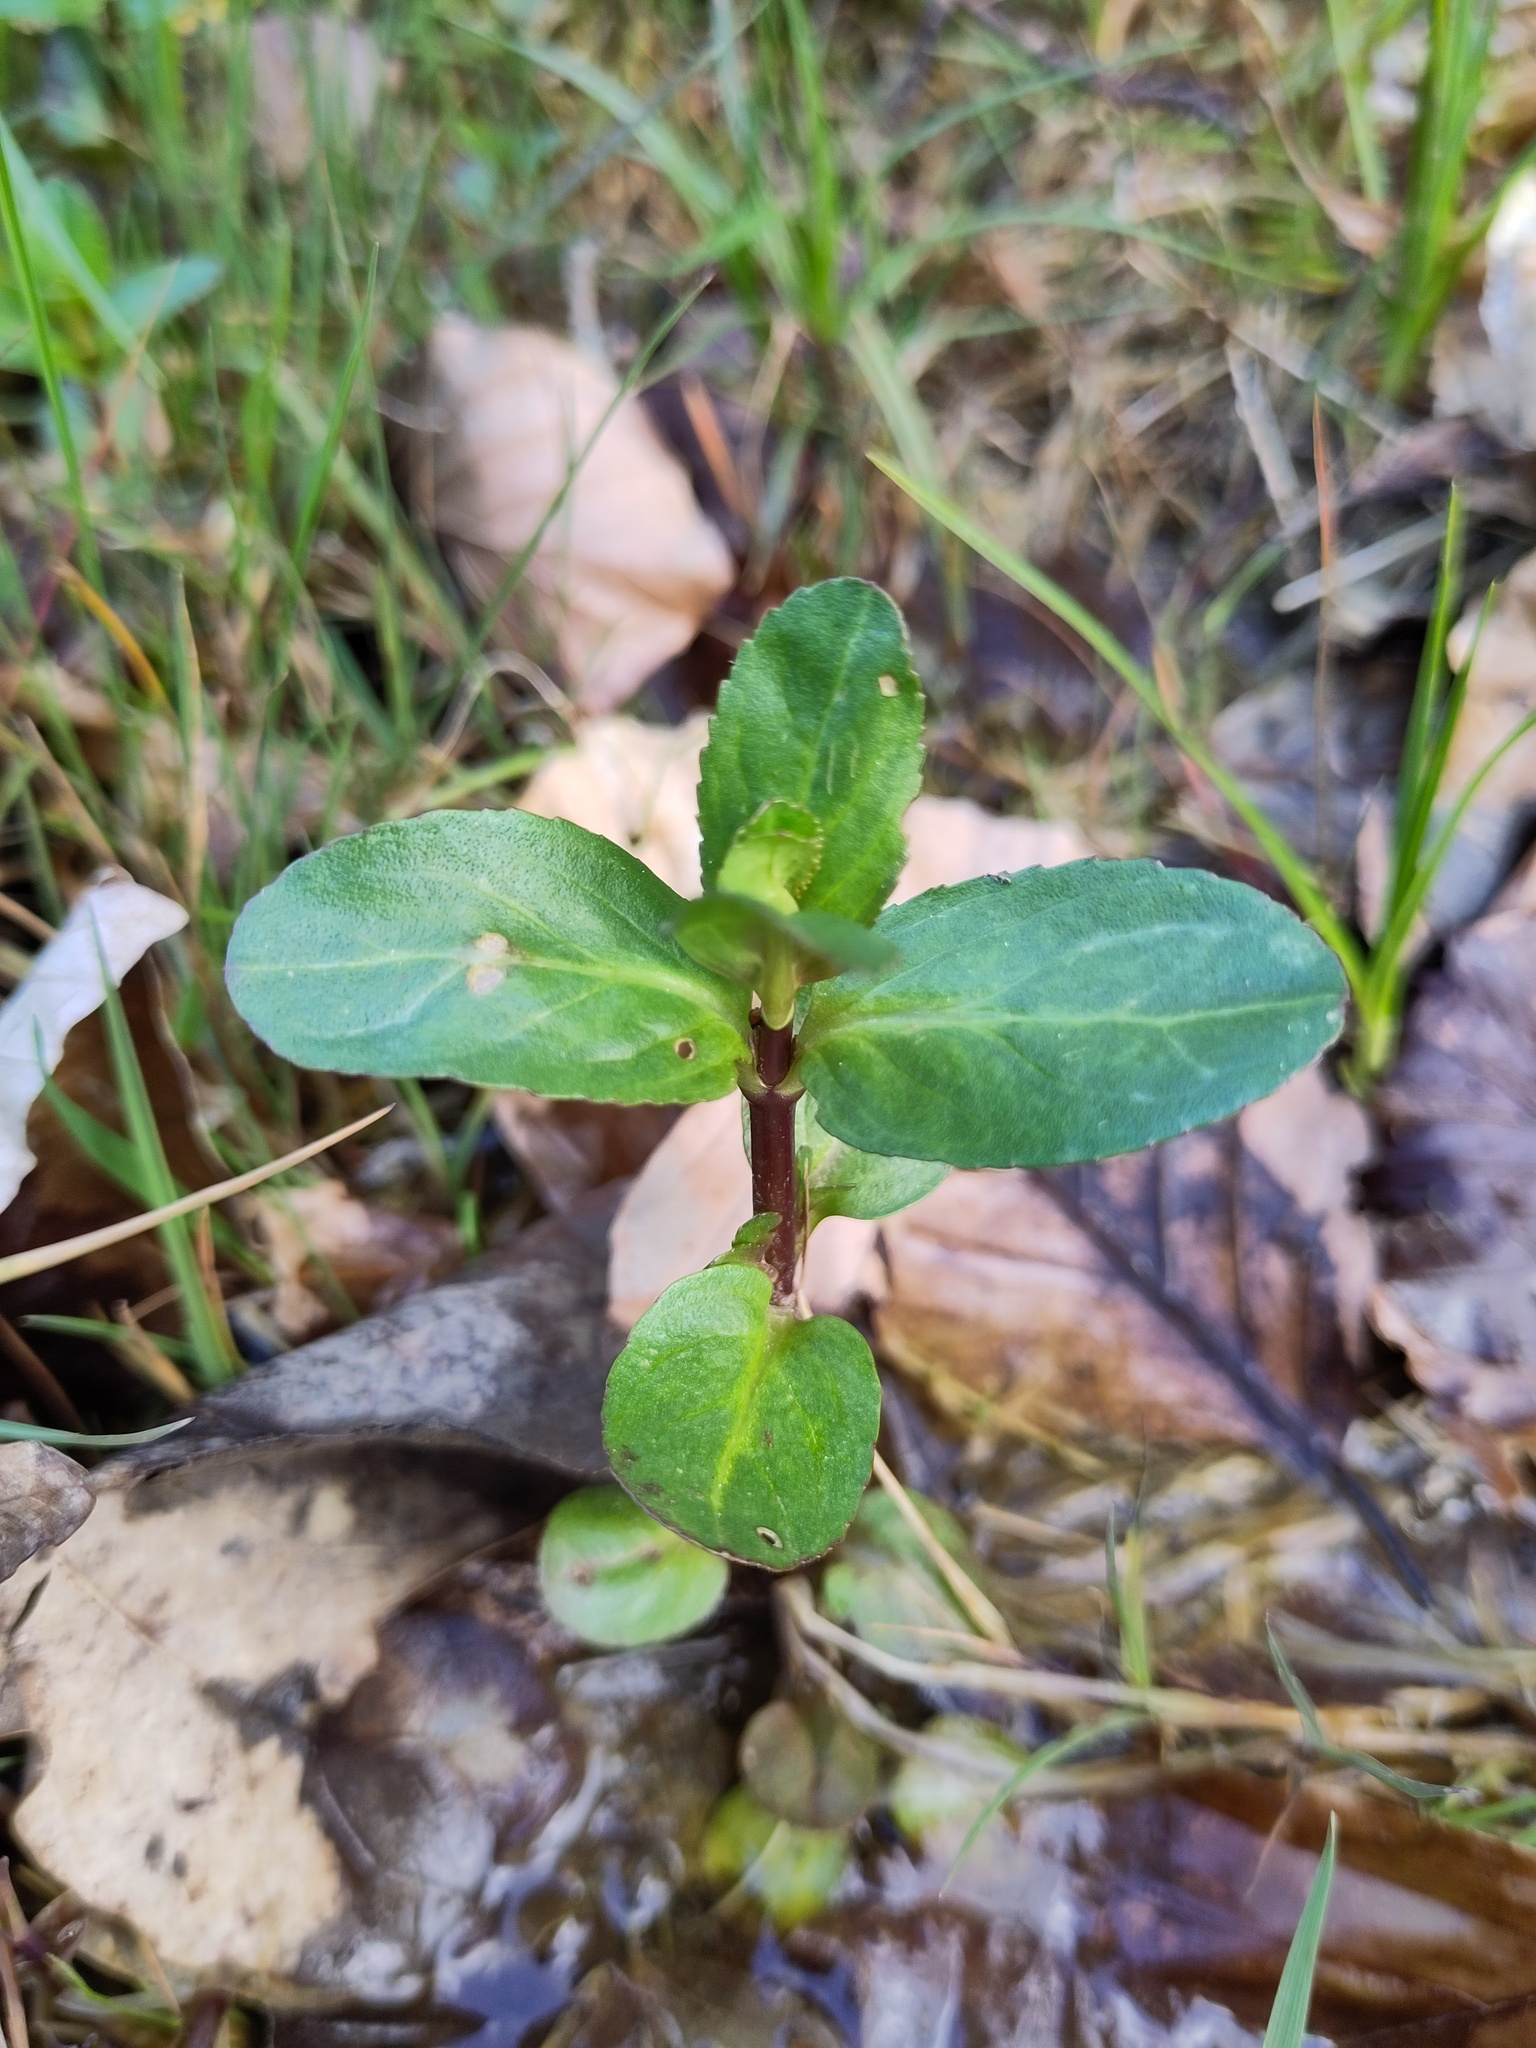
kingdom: Plantae
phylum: Tracheophyta
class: Magnoliopsida
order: Lamiales
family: Plantaginaceae
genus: Veronica
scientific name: Veronica beccabunga
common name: Brooklime
